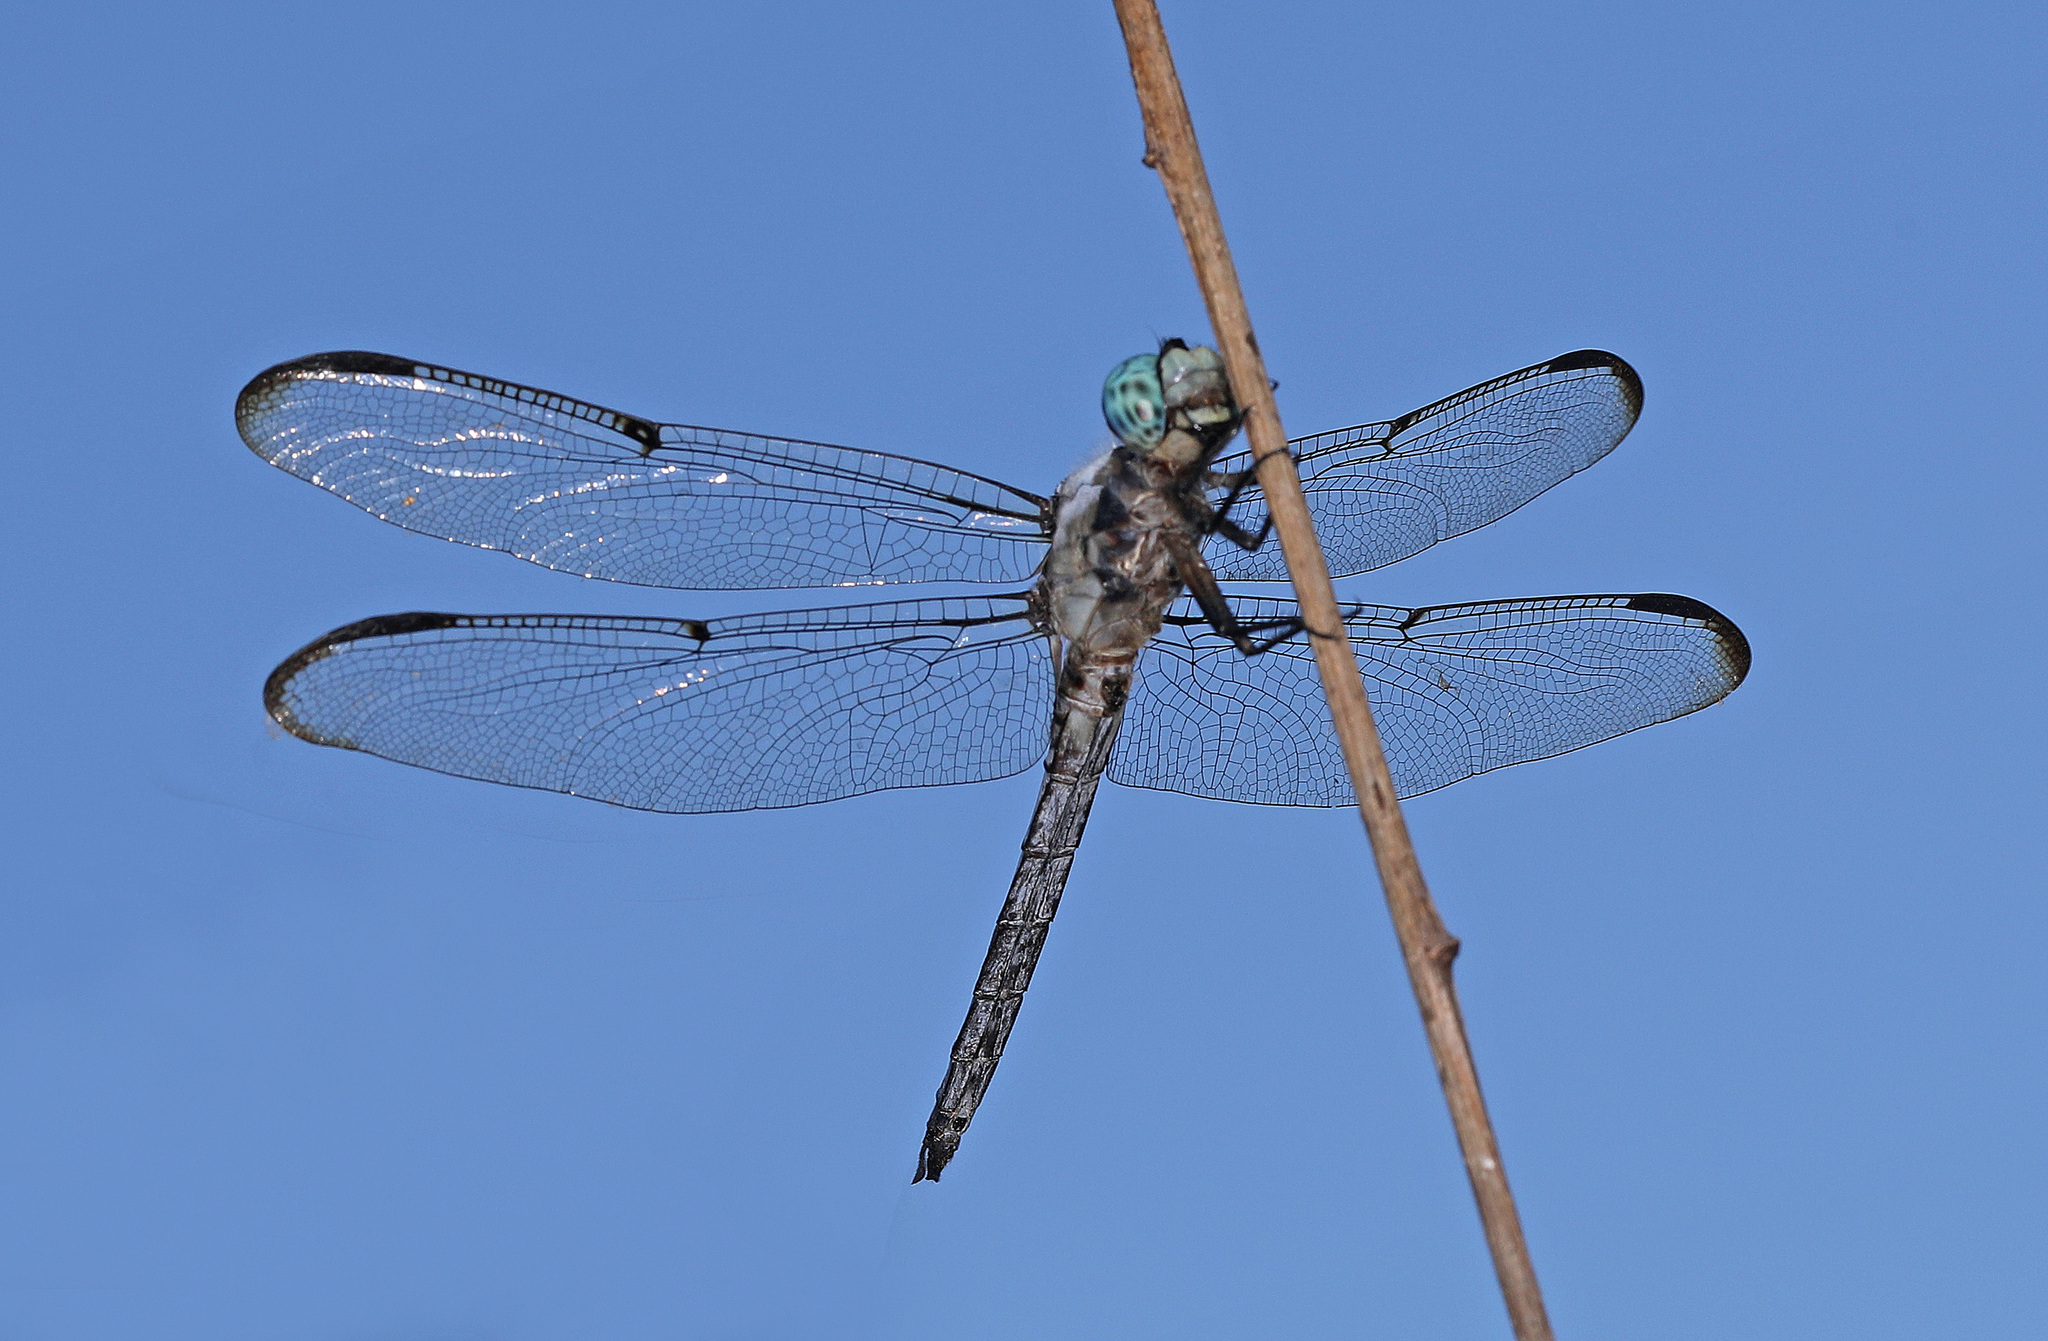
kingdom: Animalia
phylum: Arthropoda
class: Insecta
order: Odonata
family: Libellulidae
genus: Libellula
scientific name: Libellula vibrans
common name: Great blue skimmer
